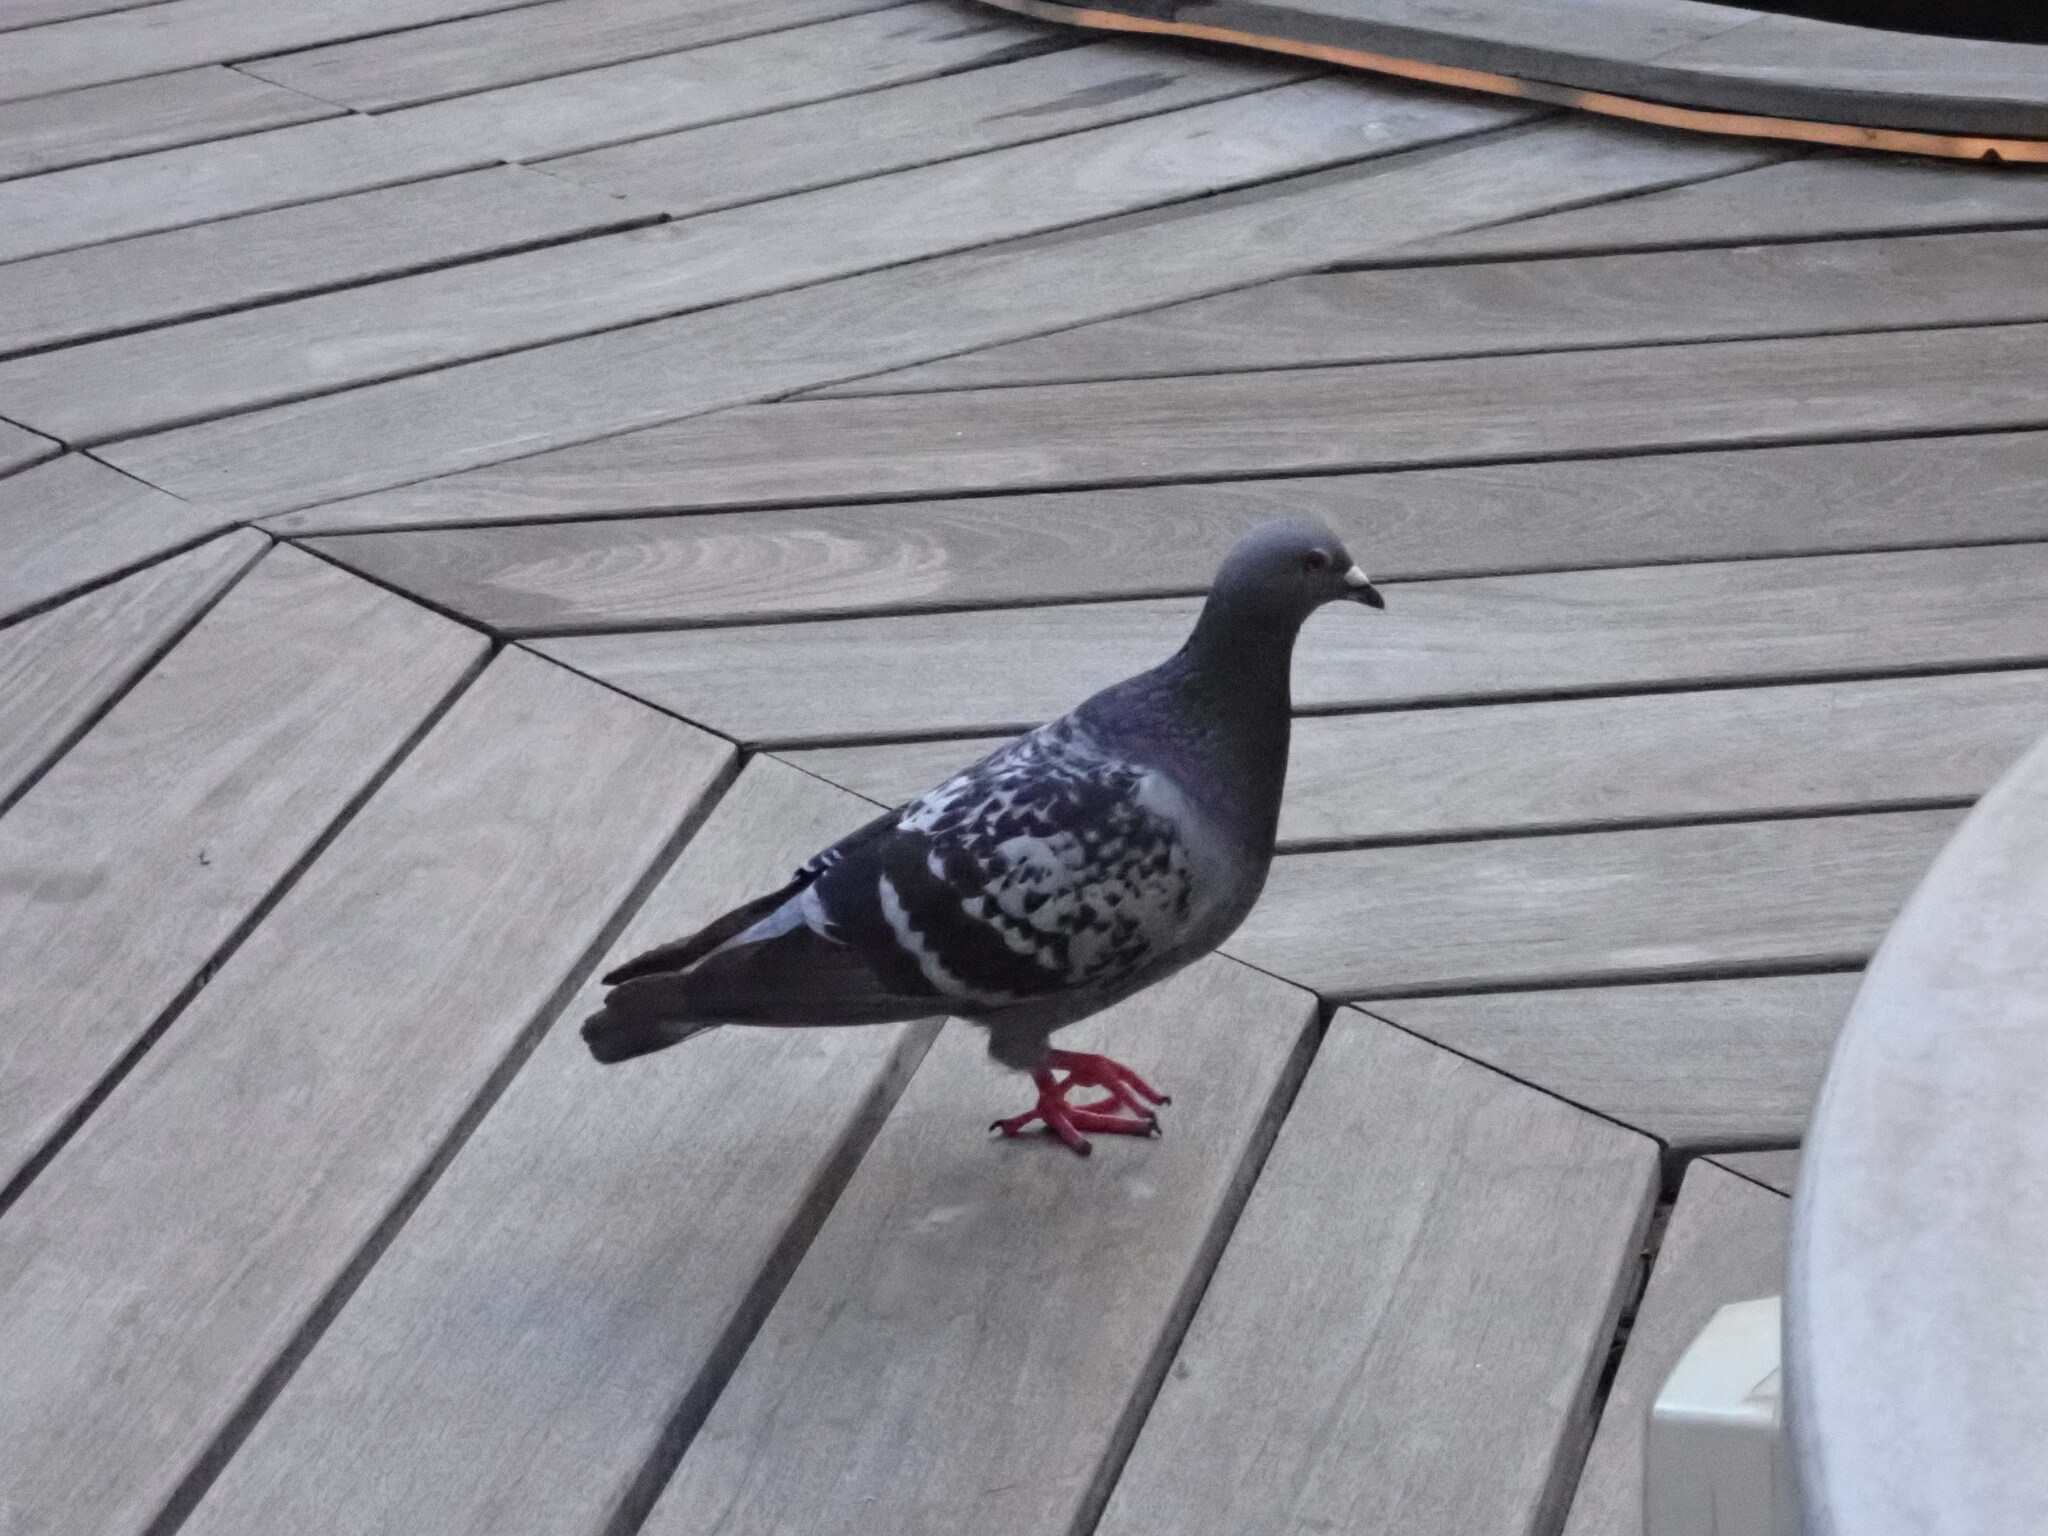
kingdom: Animalia
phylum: Chordata
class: Aves
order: Columbiformes
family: Columbidae
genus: Columba
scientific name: Columba livia
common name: Rock pigeon
